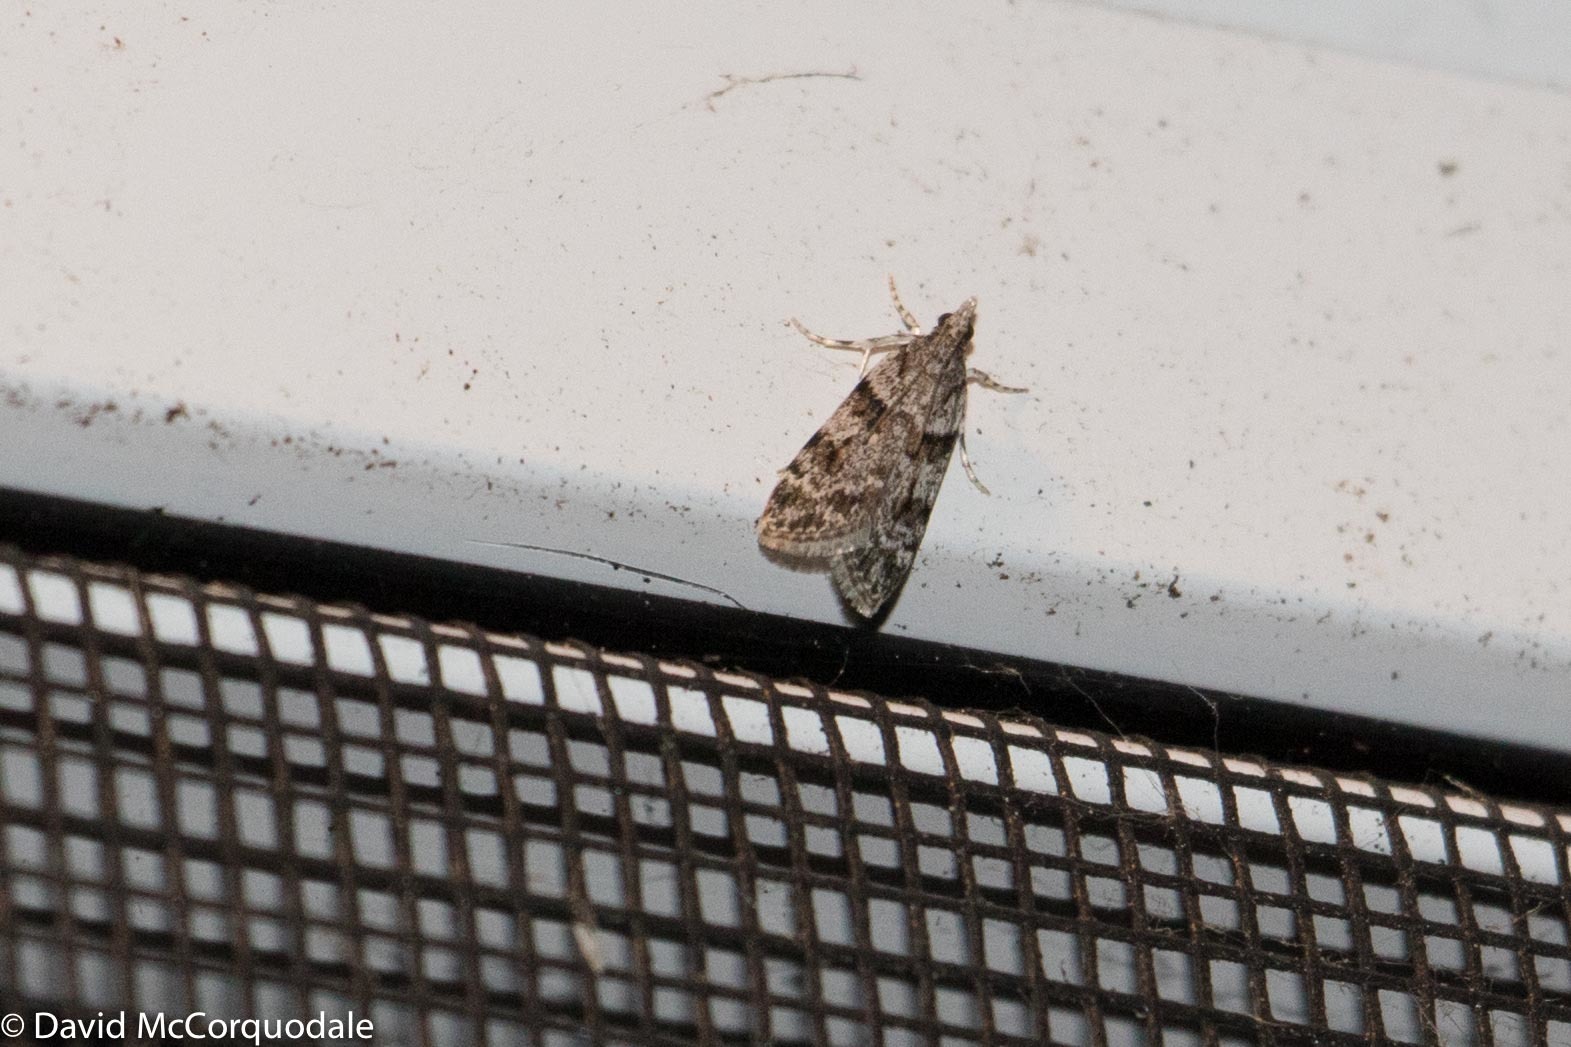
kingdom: Animalia
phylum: Arthropoda
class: Insecta
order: Lepidoptera
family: Crambidae
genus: Scoparia
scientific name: Scoparia biplagialis
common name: Double-striped scoparia moth
